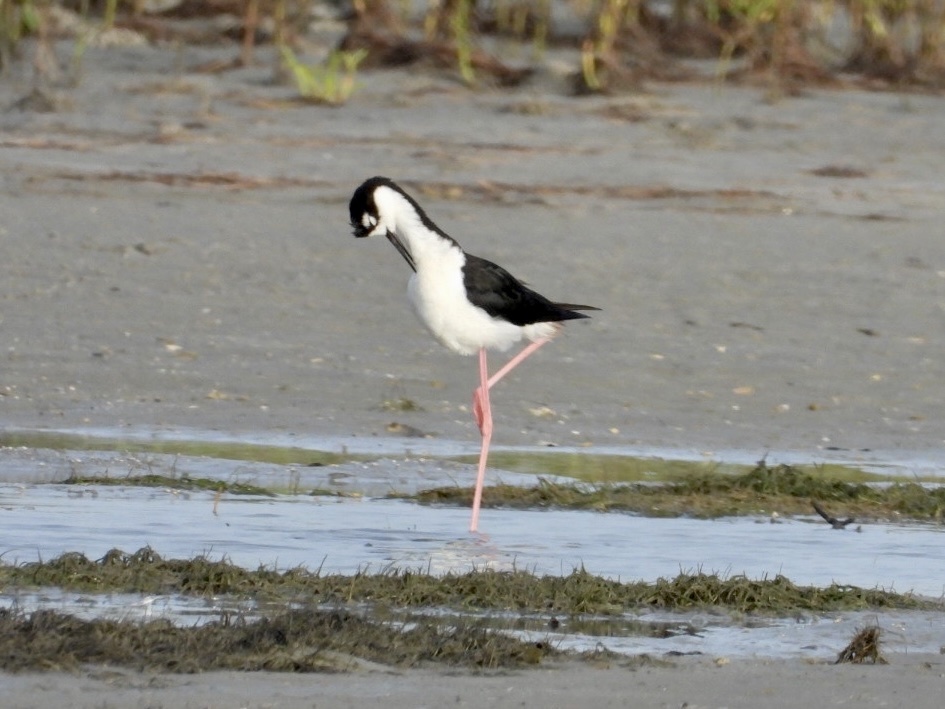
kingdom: Animalia
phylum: Chordata
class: Aves
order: Charadriiformes
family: Recurvirostridae
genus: Himantopus
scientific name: Himantopus mexicanus
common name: Black-necked stilt
